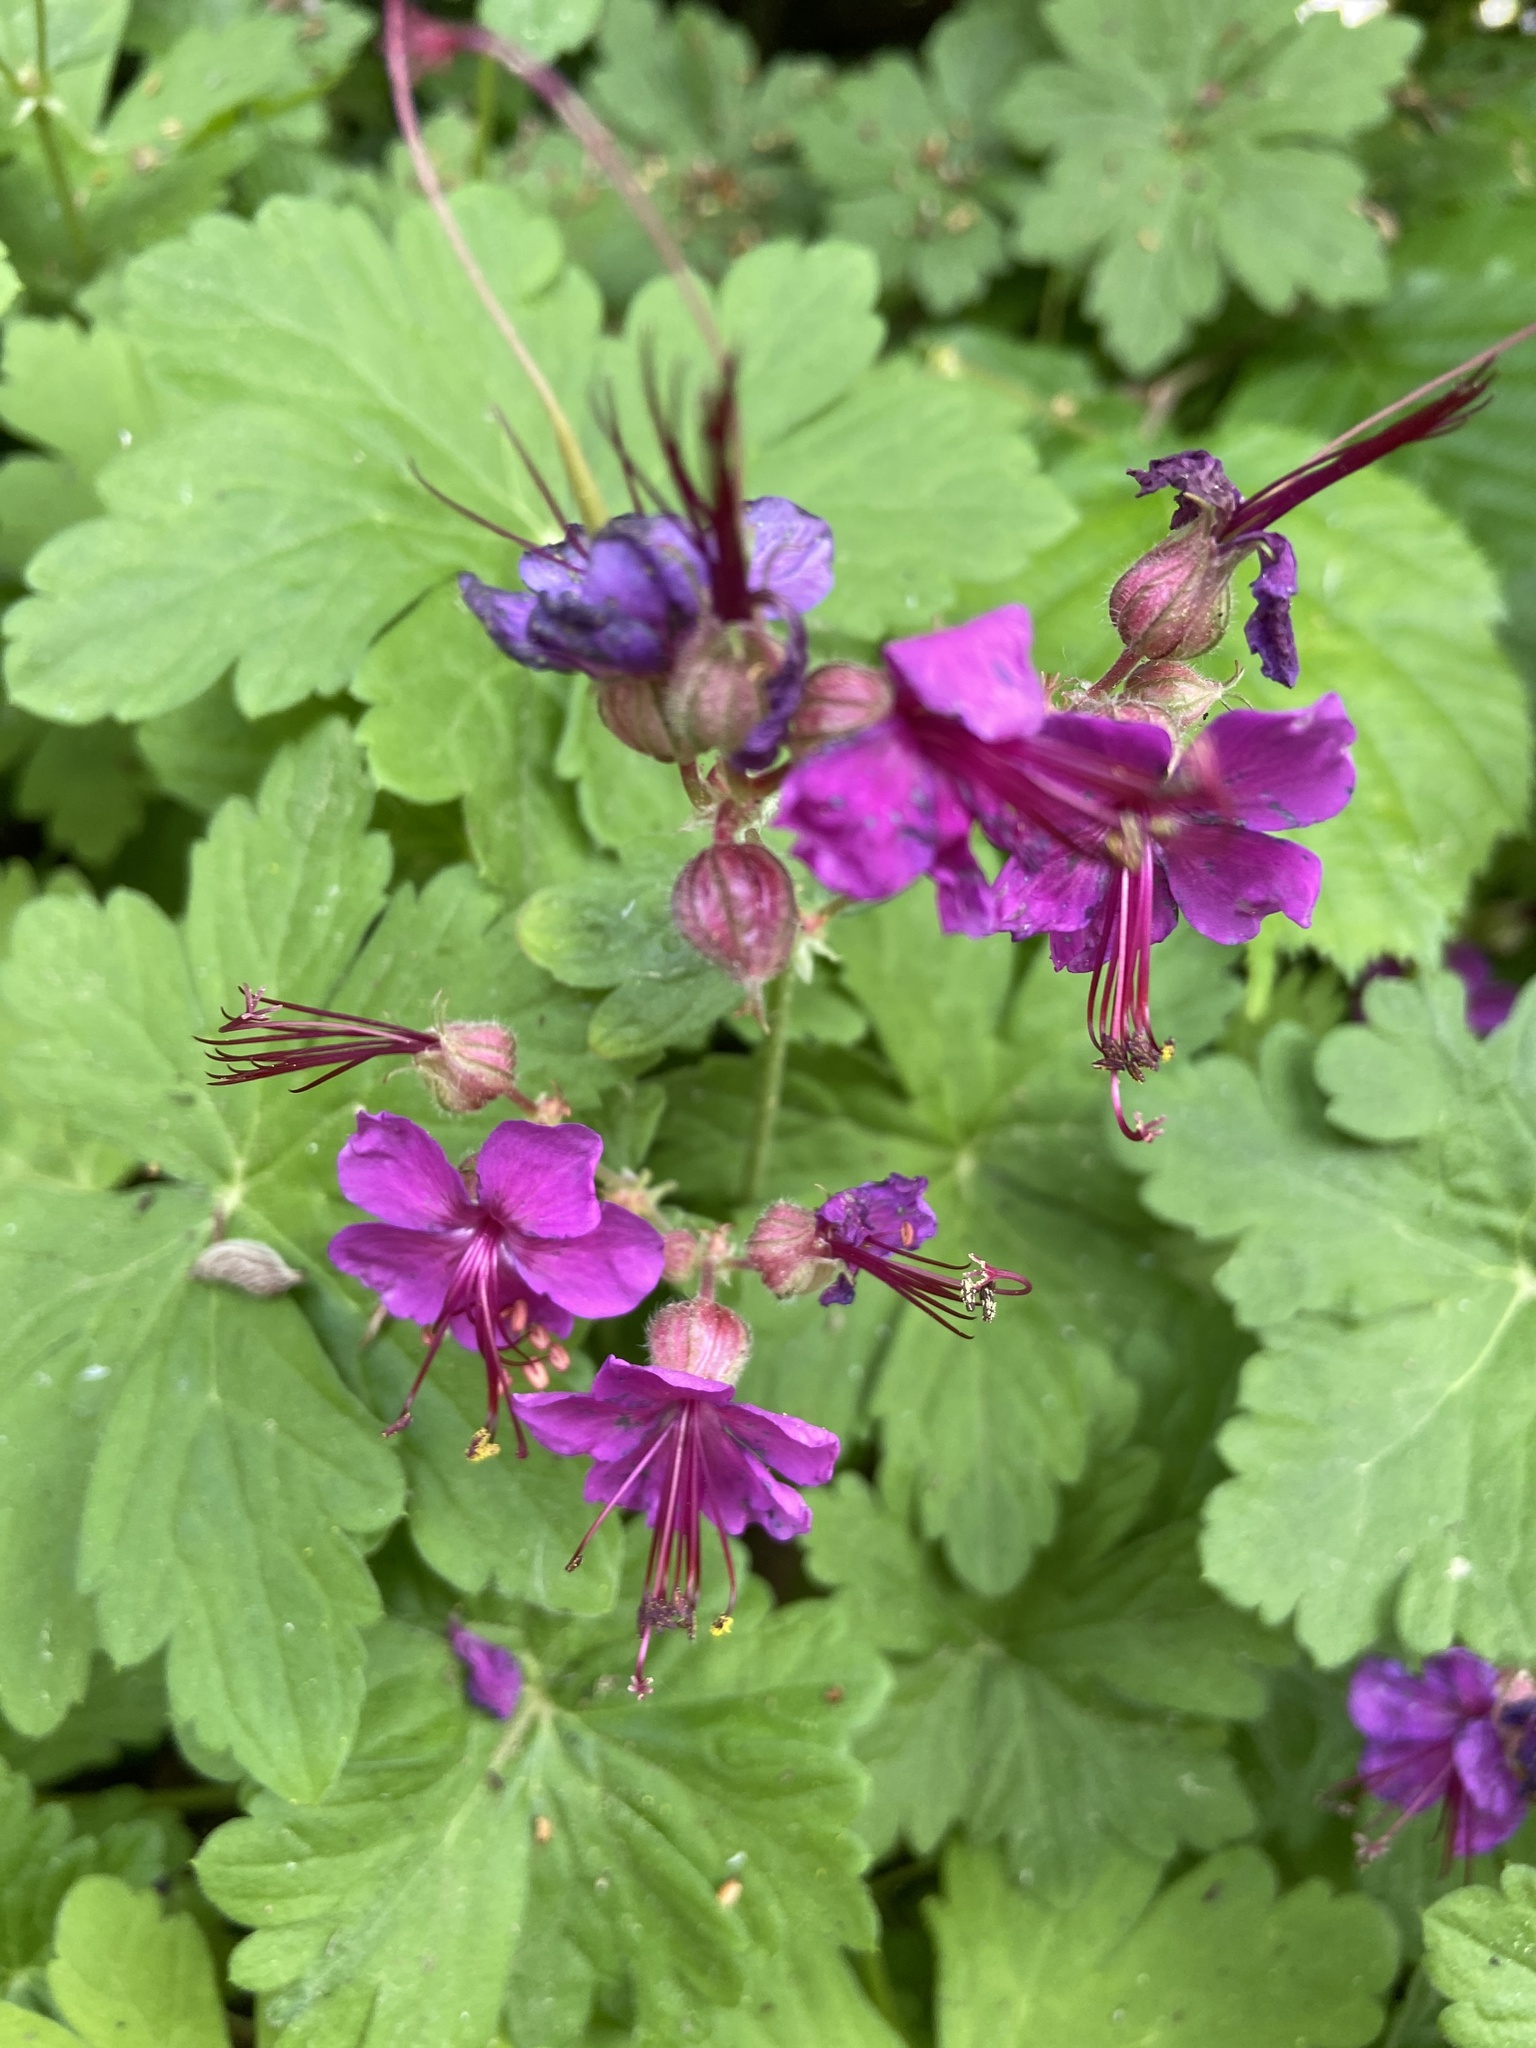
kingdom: Plantae
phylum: Tracheophyta
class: Magnoliopsida
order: Geraniales
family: Geraniaceae
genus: Geranium
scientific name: Geranium macrorrhizum
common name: Rock crane's-bill
